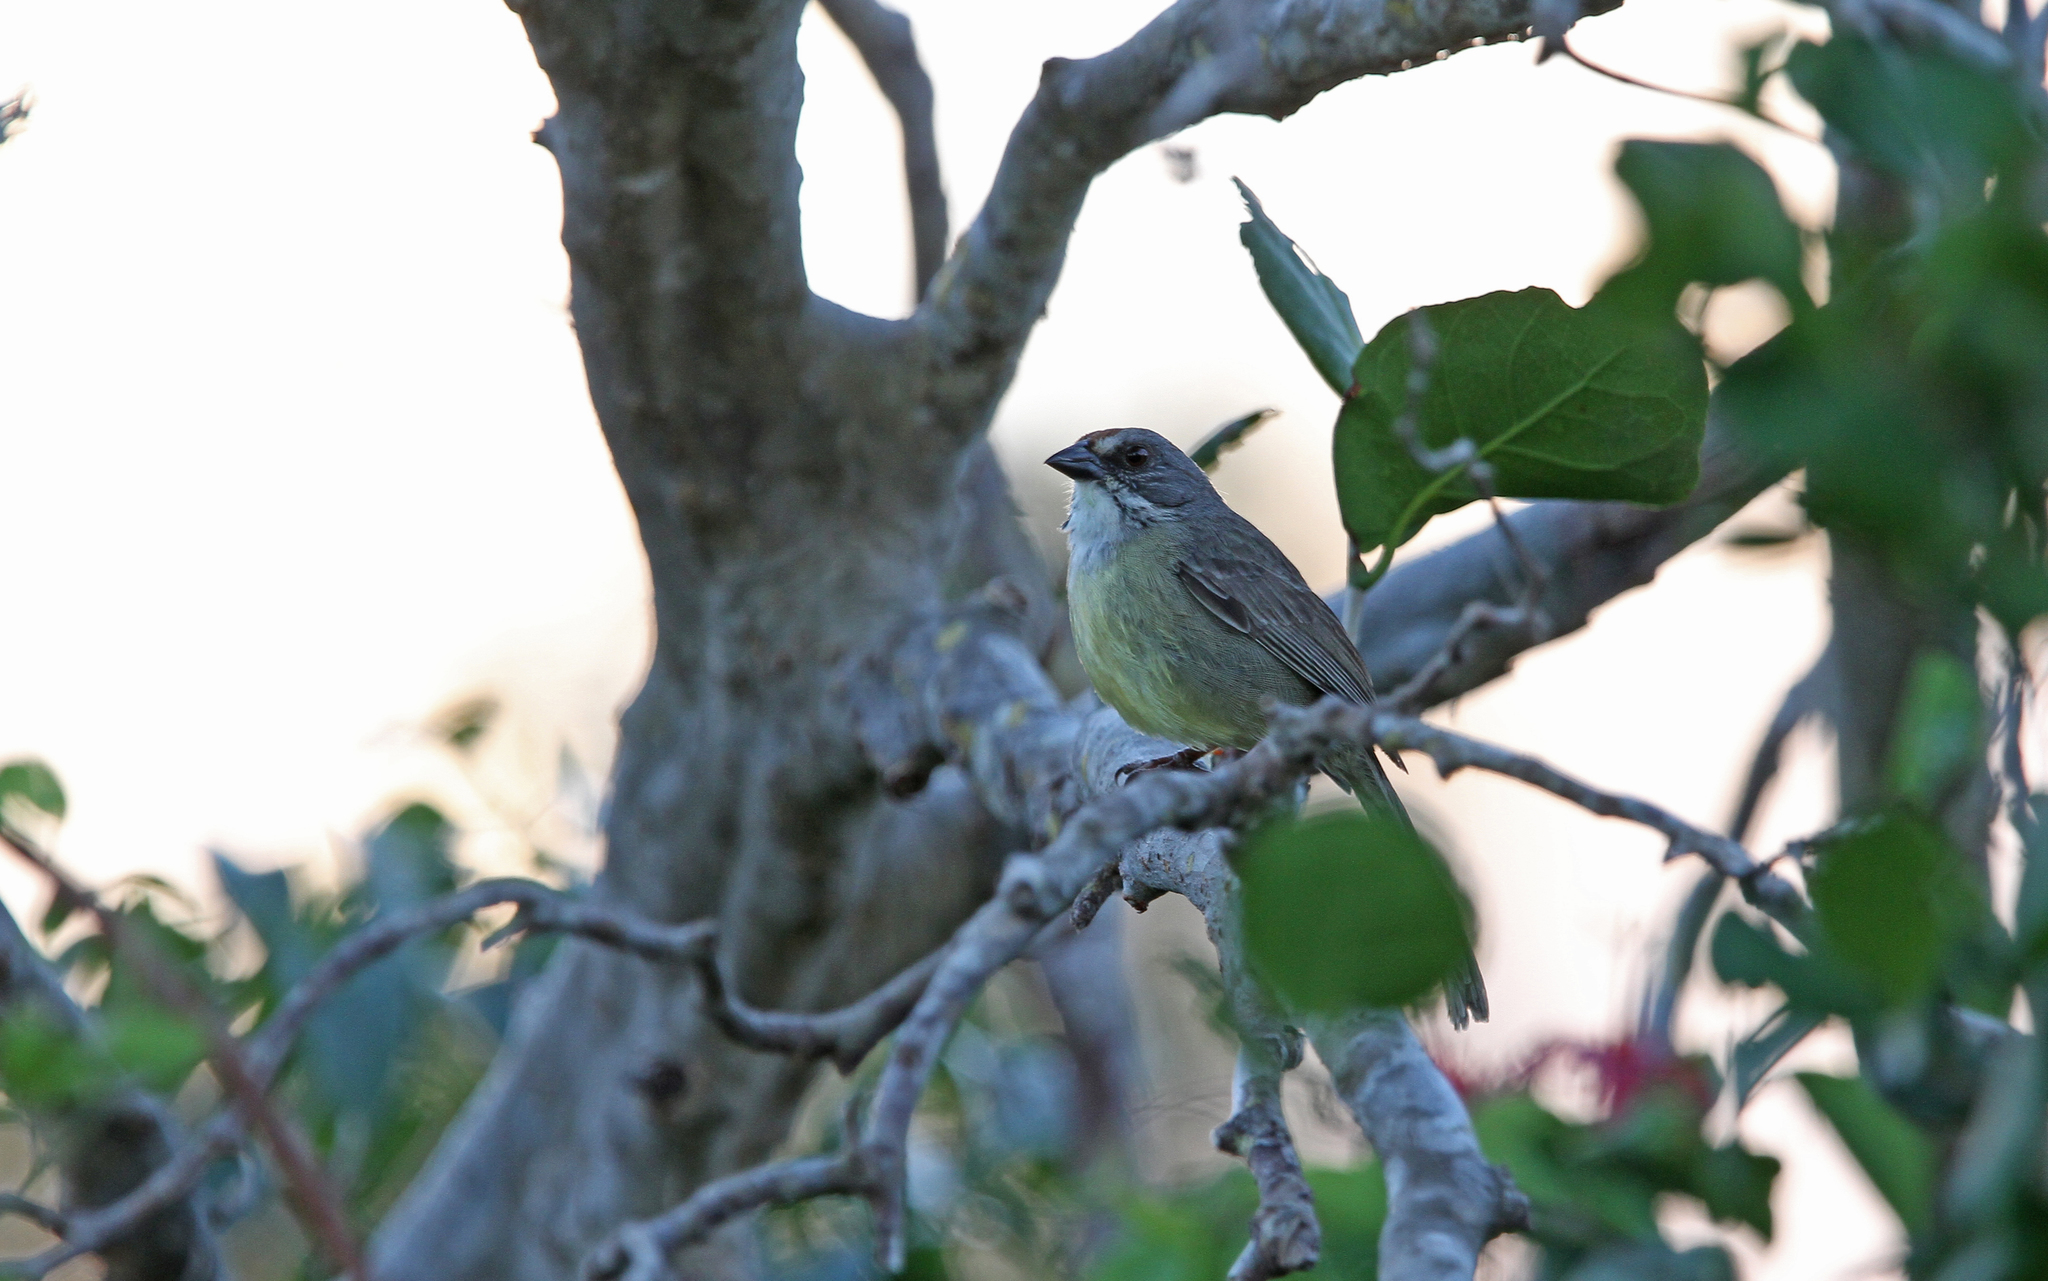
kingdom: Animalia
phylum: Chordata
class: Aves
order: Passeriformes
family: Passerellidae
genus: Torreornis
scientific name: Torreornis inexpectata
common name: Zapata sparrow
